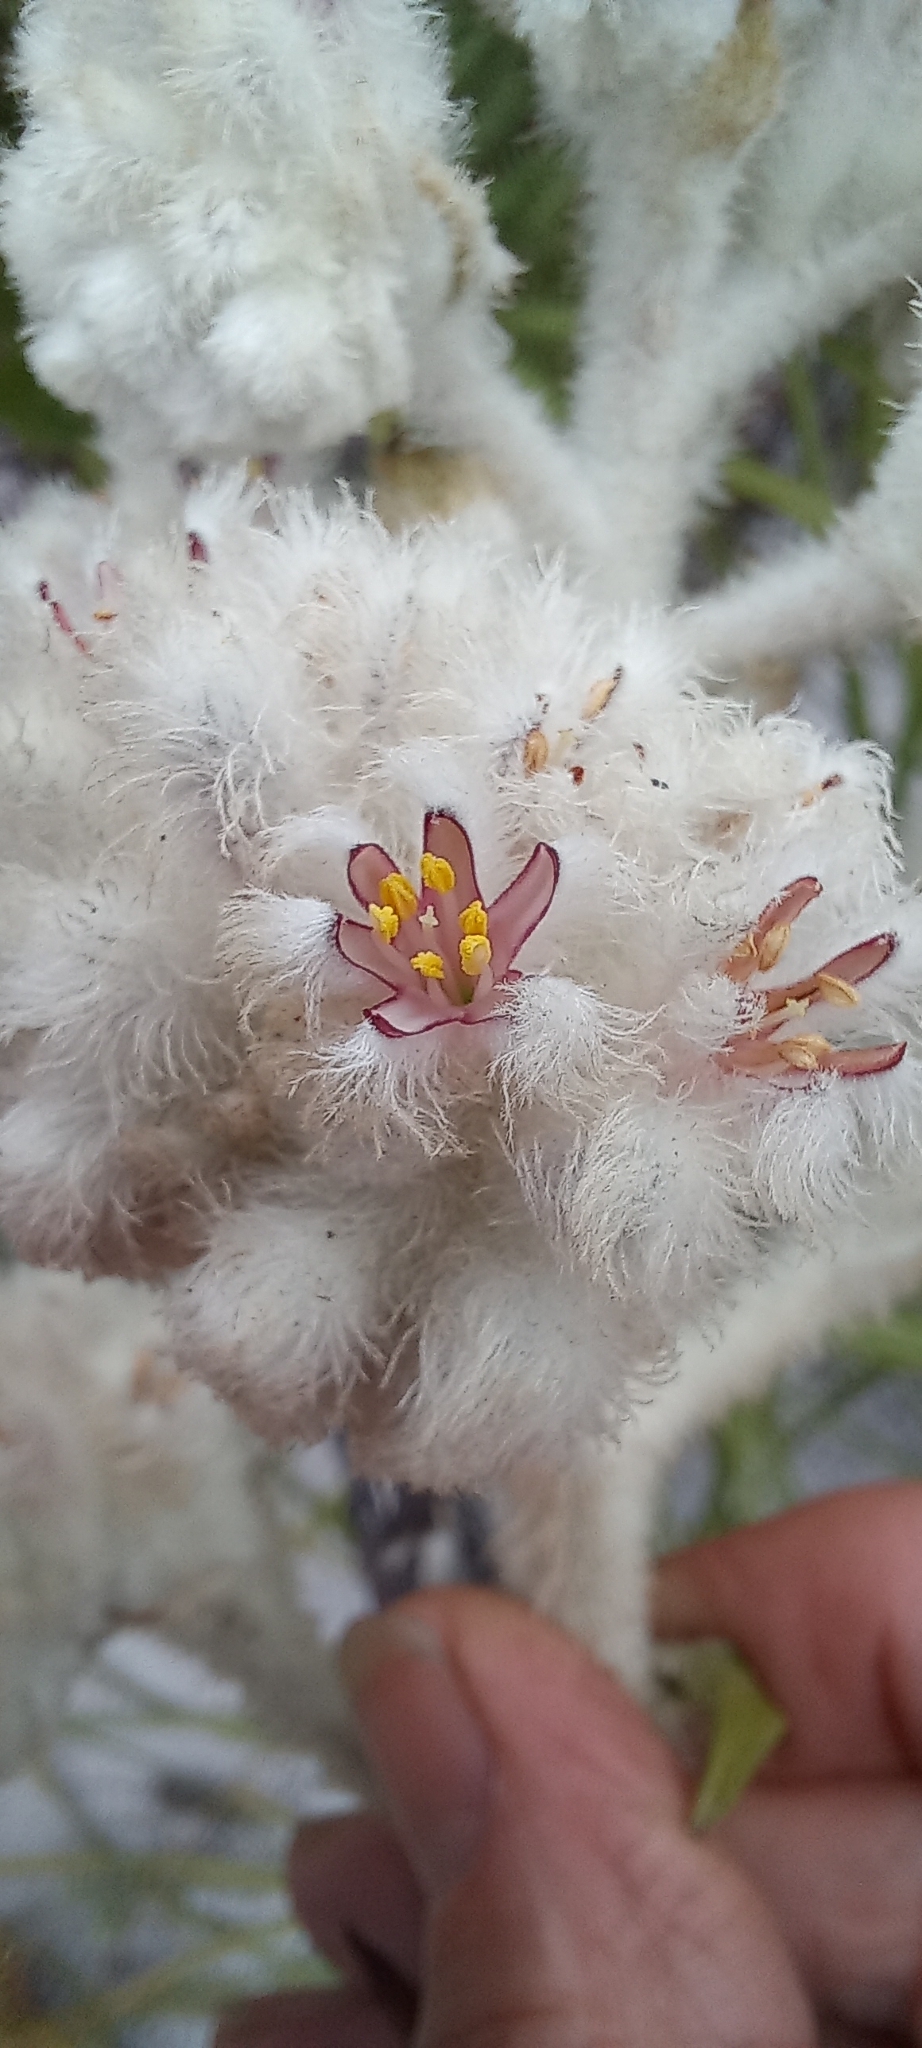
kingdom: Plantae
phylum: Tracheophyta
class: Liliopsida
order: Asparagales
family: Lanariaceae
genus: Lanaria
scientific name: Lanaria lanata
